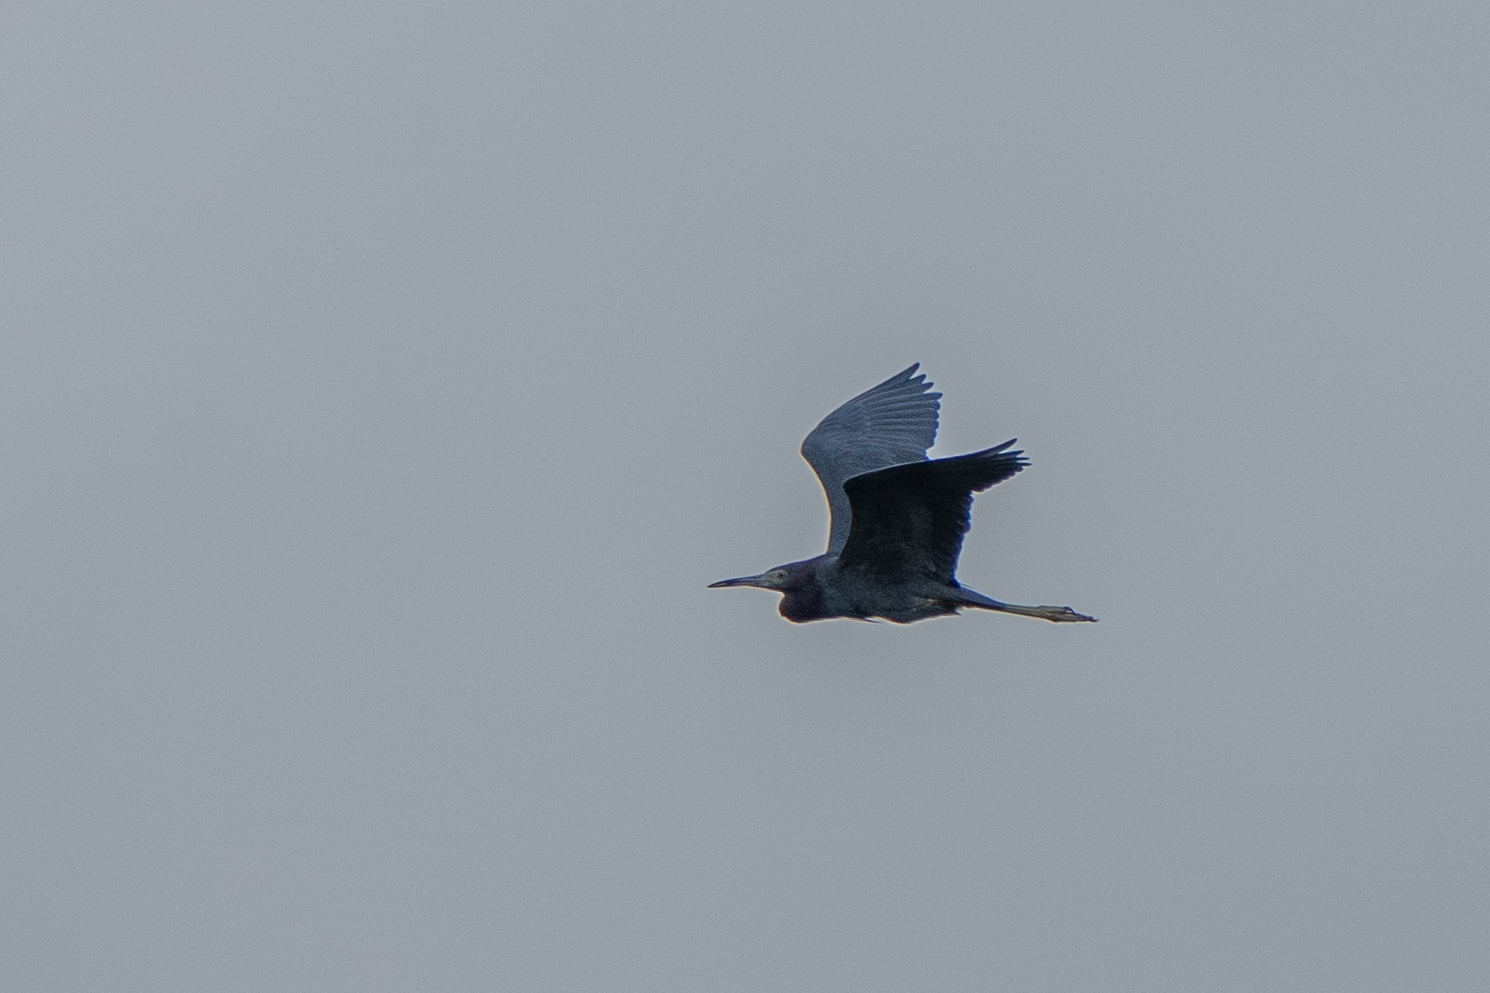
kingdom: Animalia
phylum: Chordata
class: Aves
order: Pelecaniformes
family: Ardeidae
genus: Egretta
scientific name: Egretta caerulea
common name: Little blue heron
